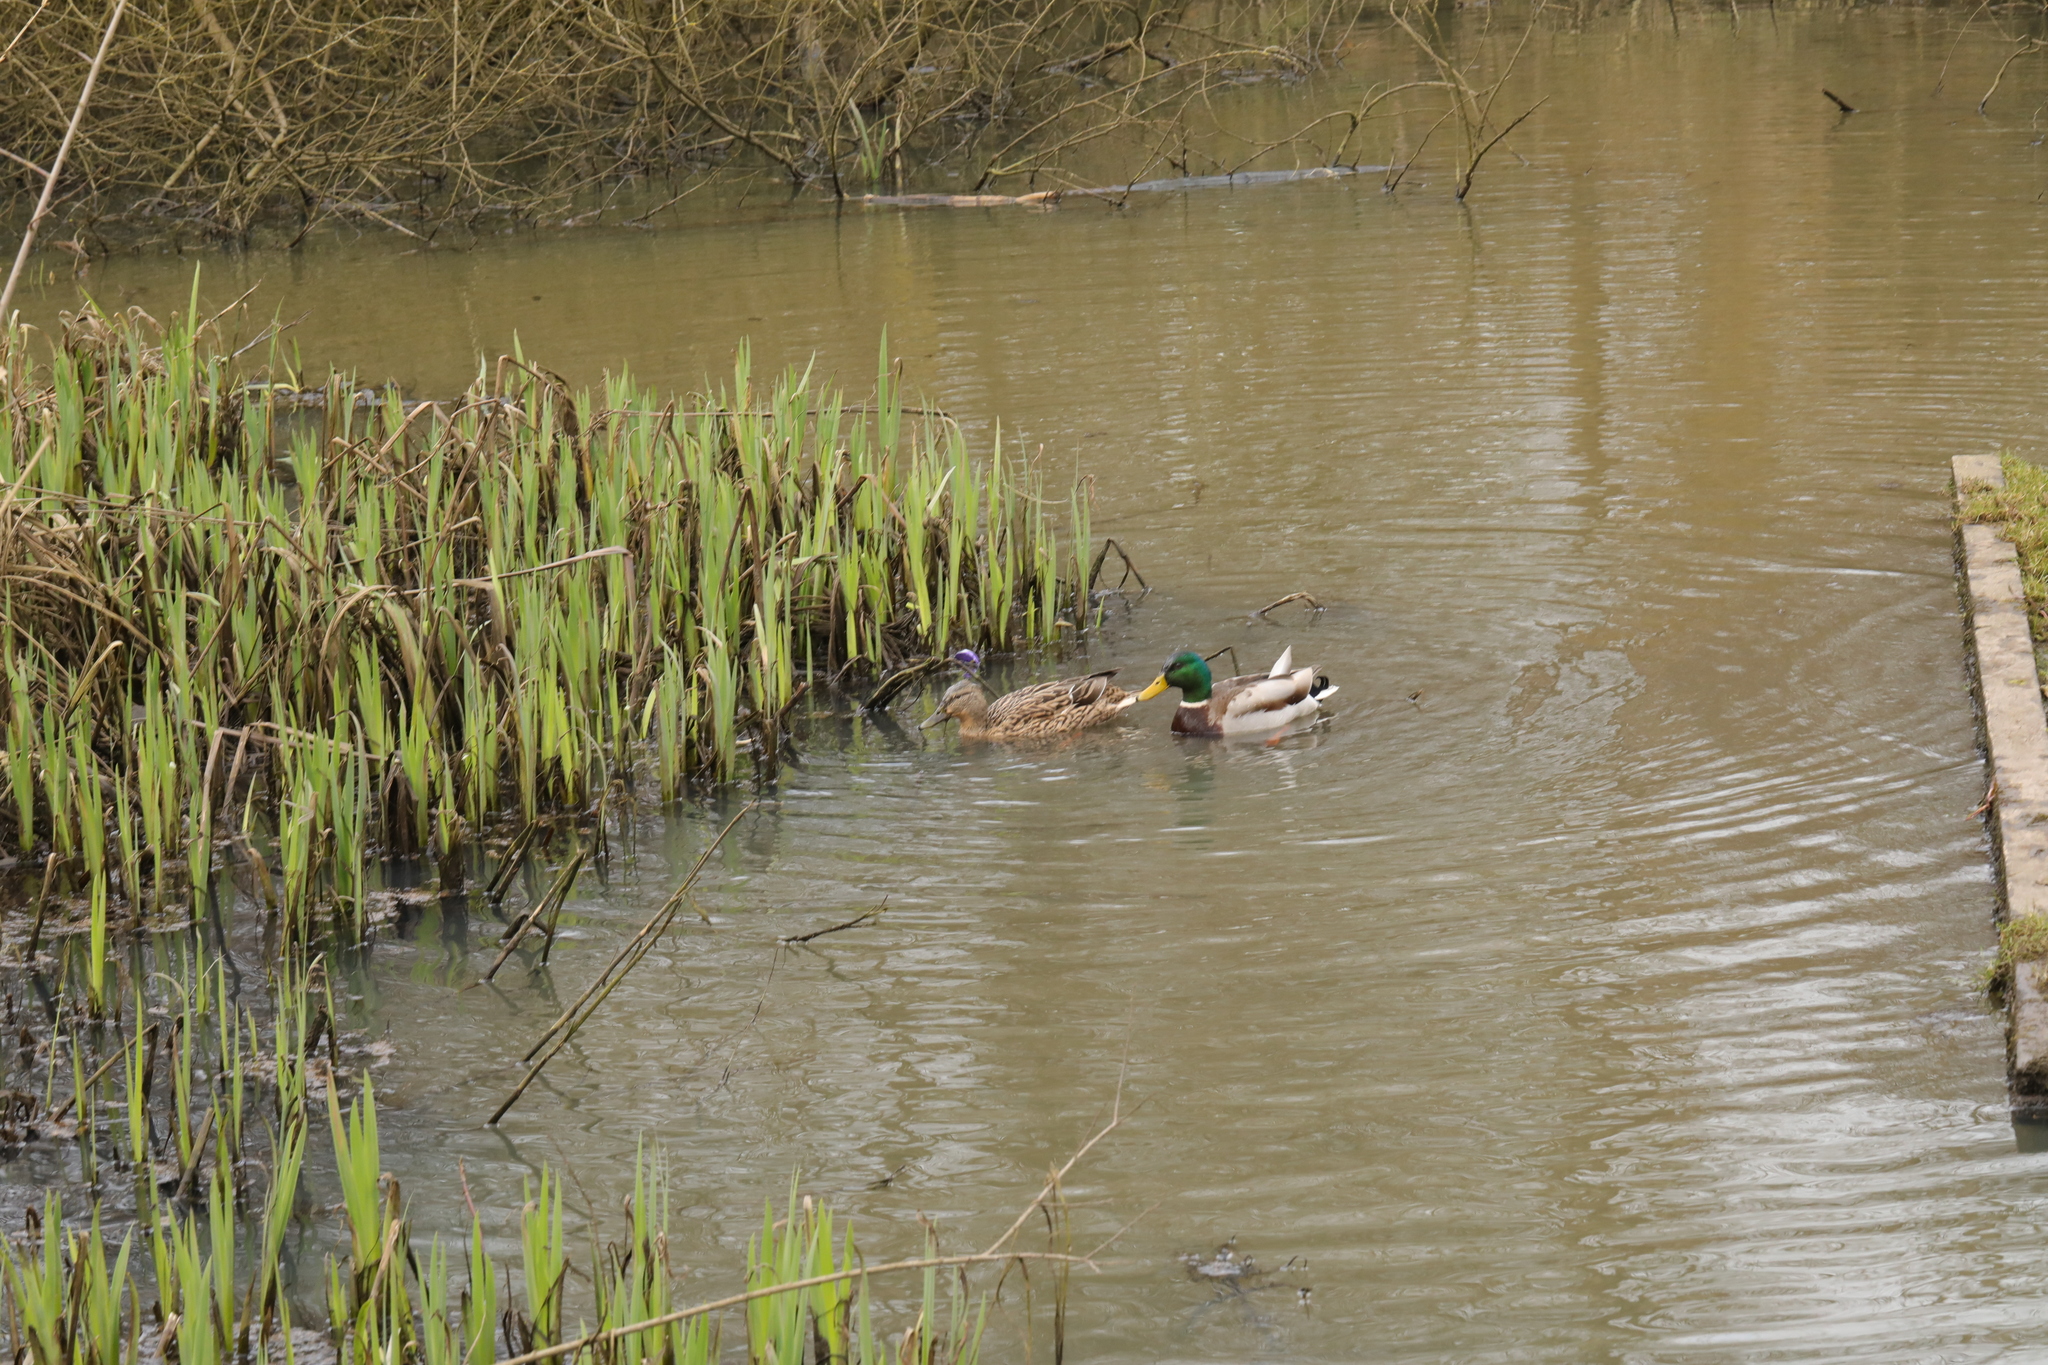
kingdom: Animalia
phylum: Chordata
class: Aves
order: Anseriformes
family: Anatidae
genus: Anas
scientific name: Anas platyrhynchos
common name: Mallard
